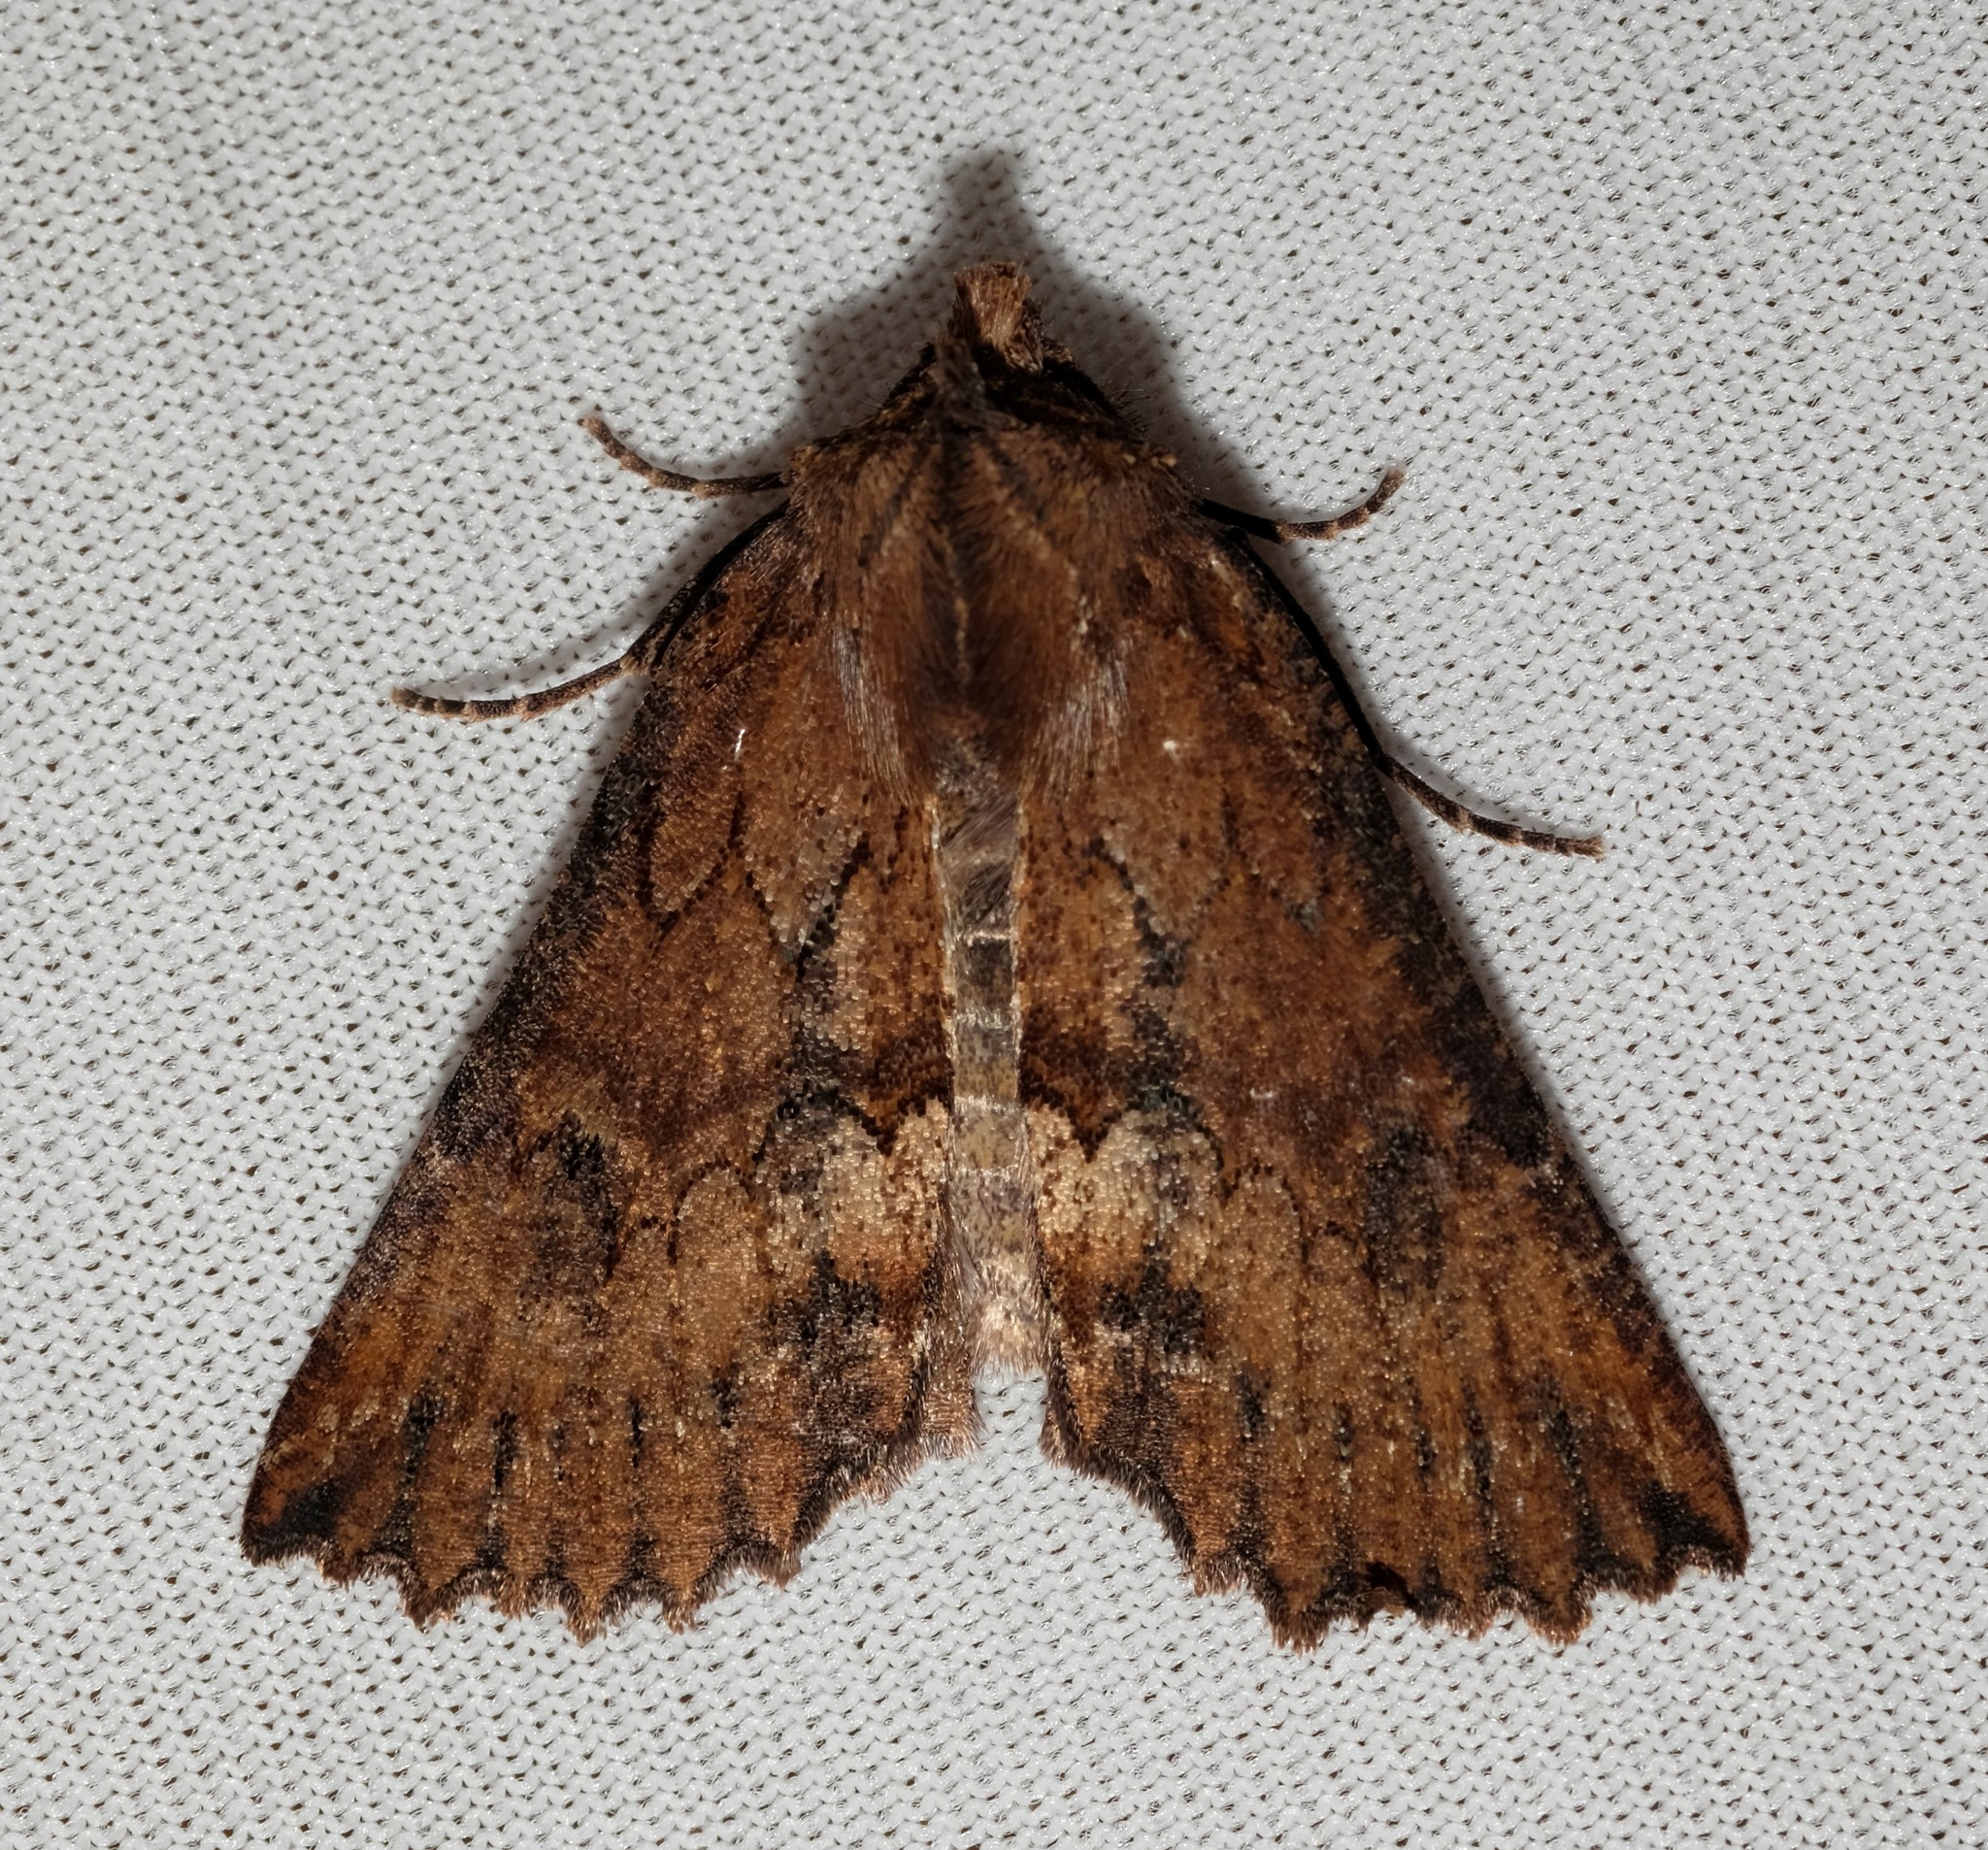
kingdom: Animalia
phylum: Arthropoda
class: Insecta
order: Lepidoptera
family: Geometridae
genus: Nisista
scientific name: Nisista serrata
